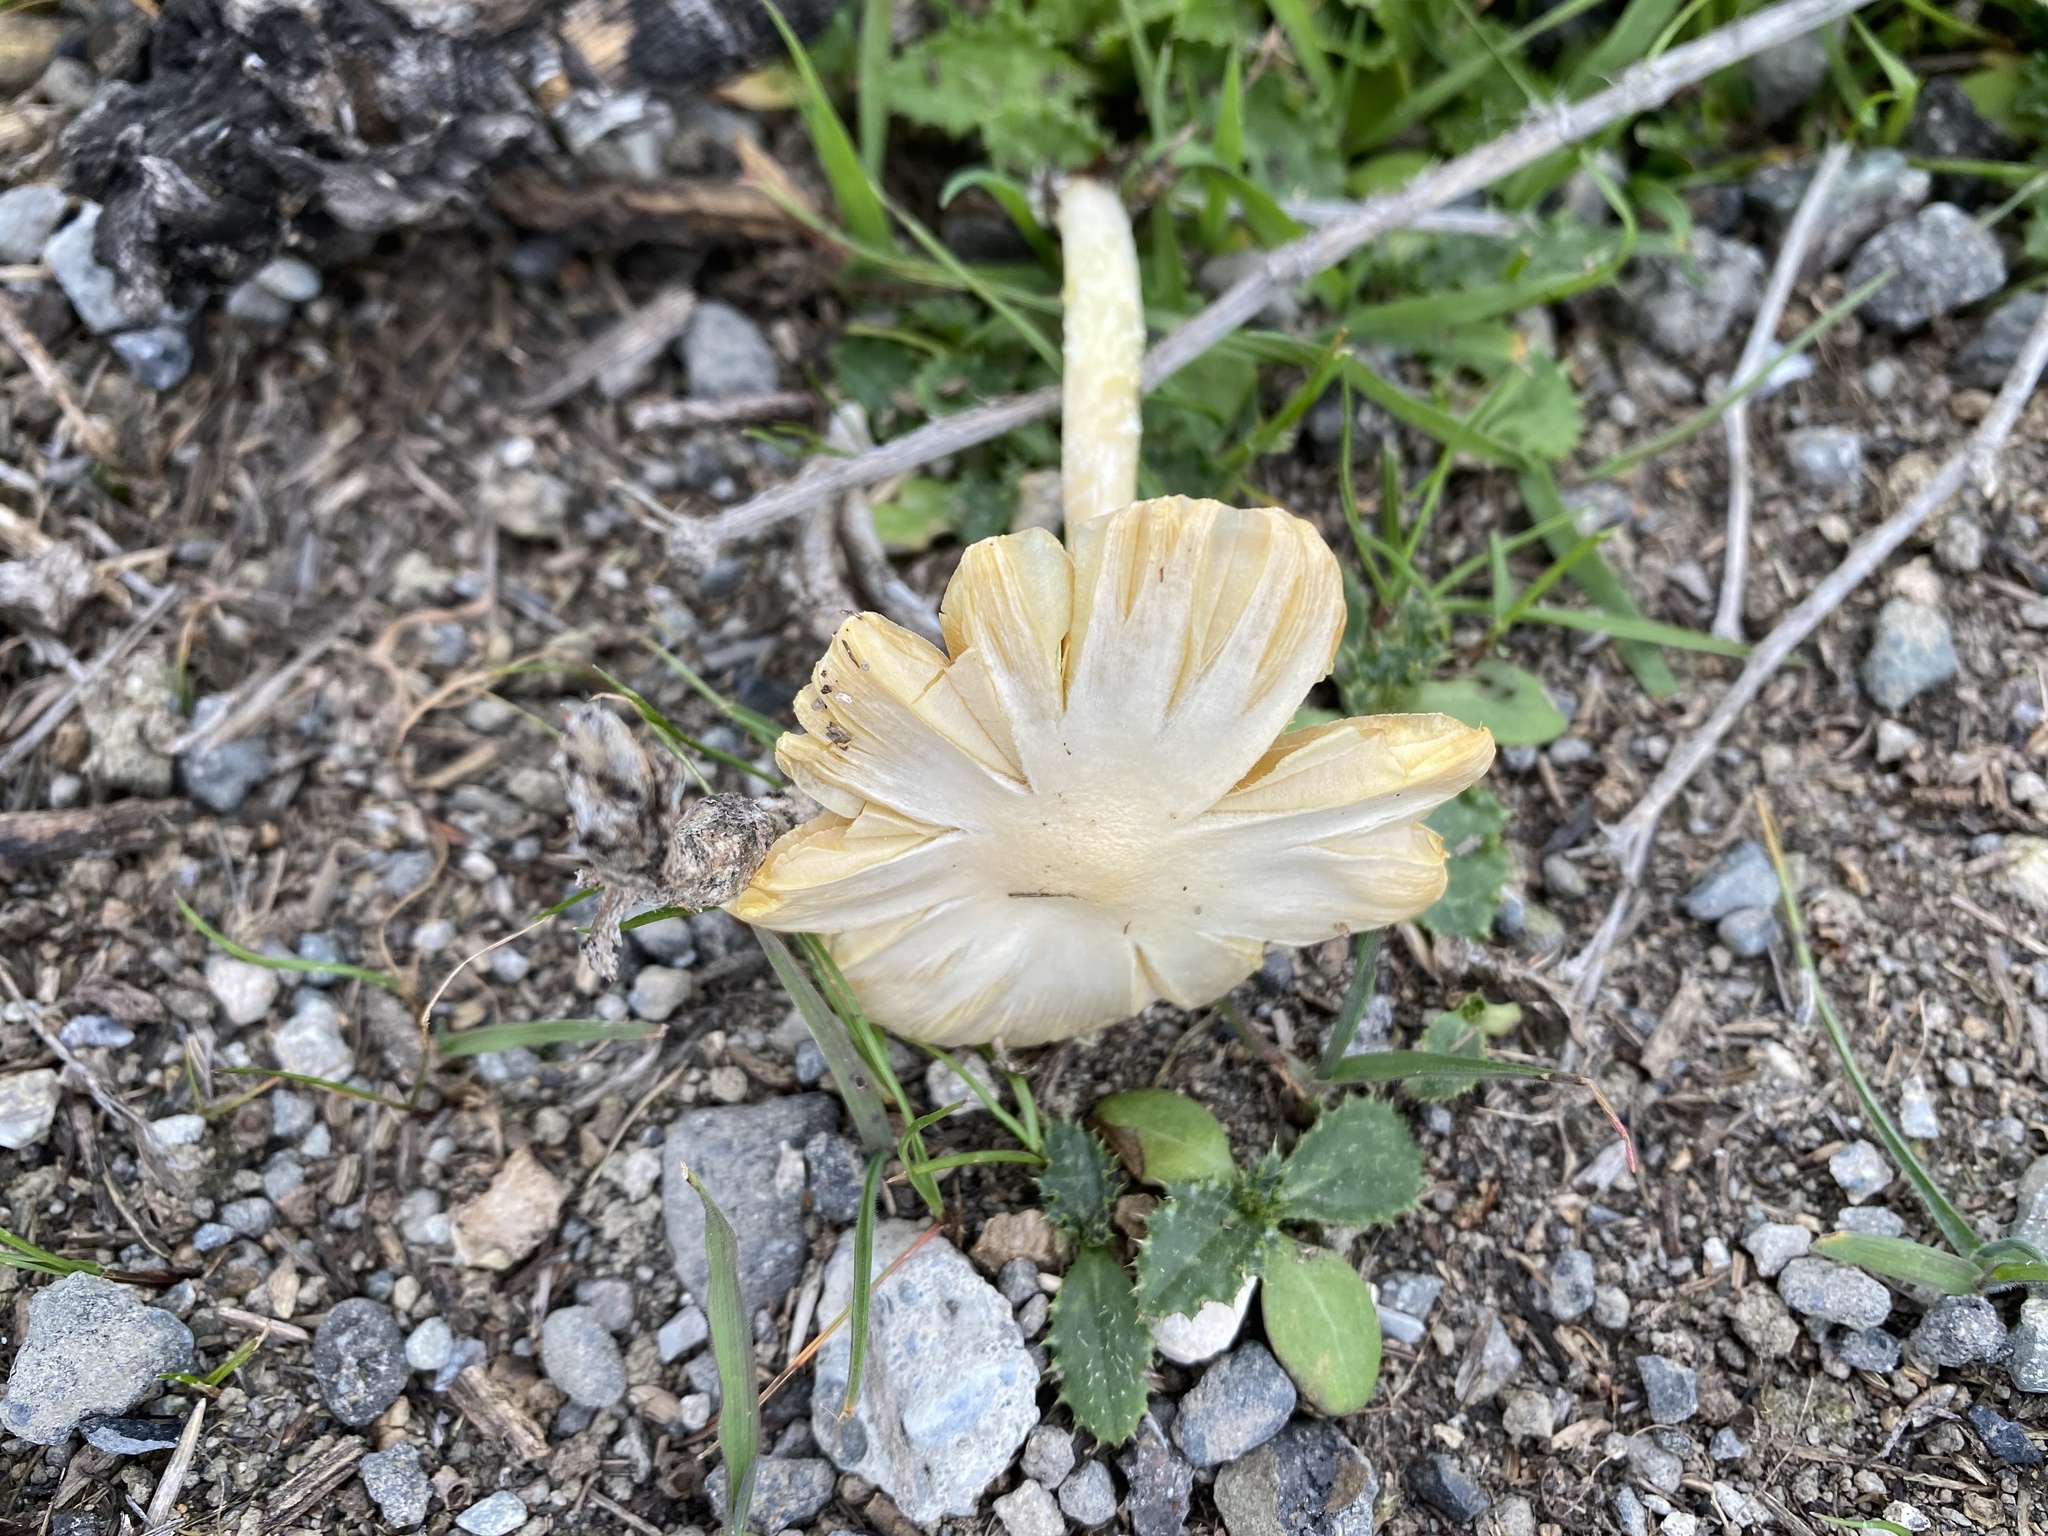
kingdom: Fungi
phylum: Basidiomycota
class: Agaricomycetes
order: Agaricales
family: Bolbitiaceae
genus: Bolbitius
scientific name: Bolbitius titubans
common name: Yellow fieldcap
